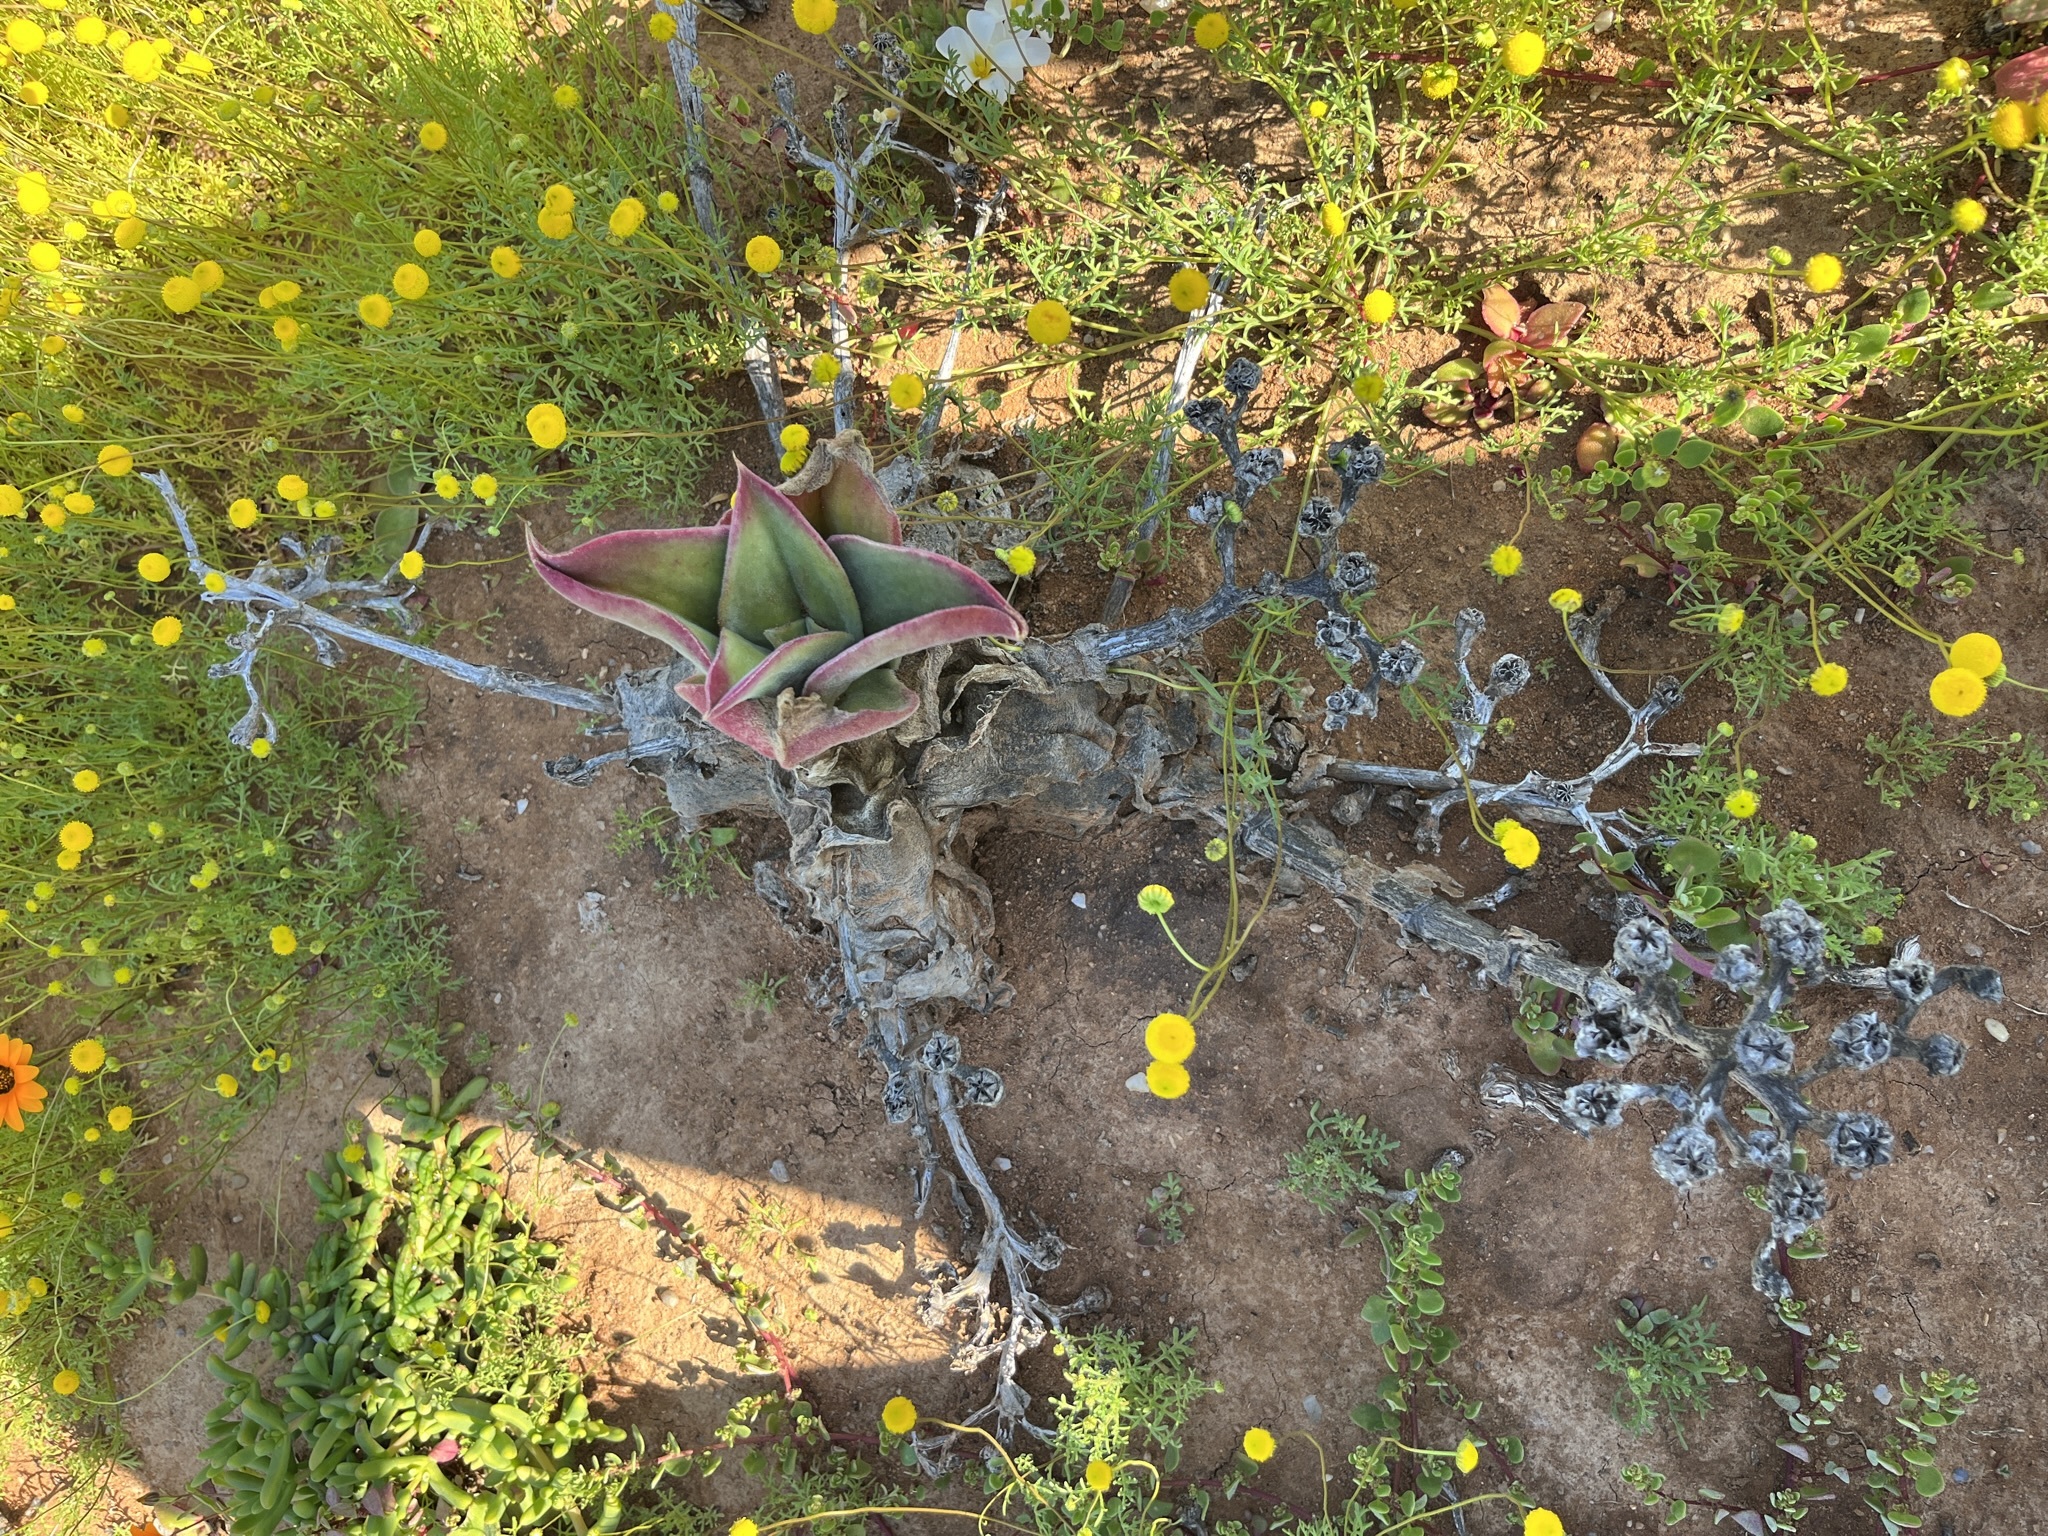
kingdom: Plantae
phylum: Tracheophyta
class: Magnoliopsida
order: Caryophyllales
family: Aizoaceae
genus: Mesembryanthemum
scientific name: Mesembryanthemum barklyi
